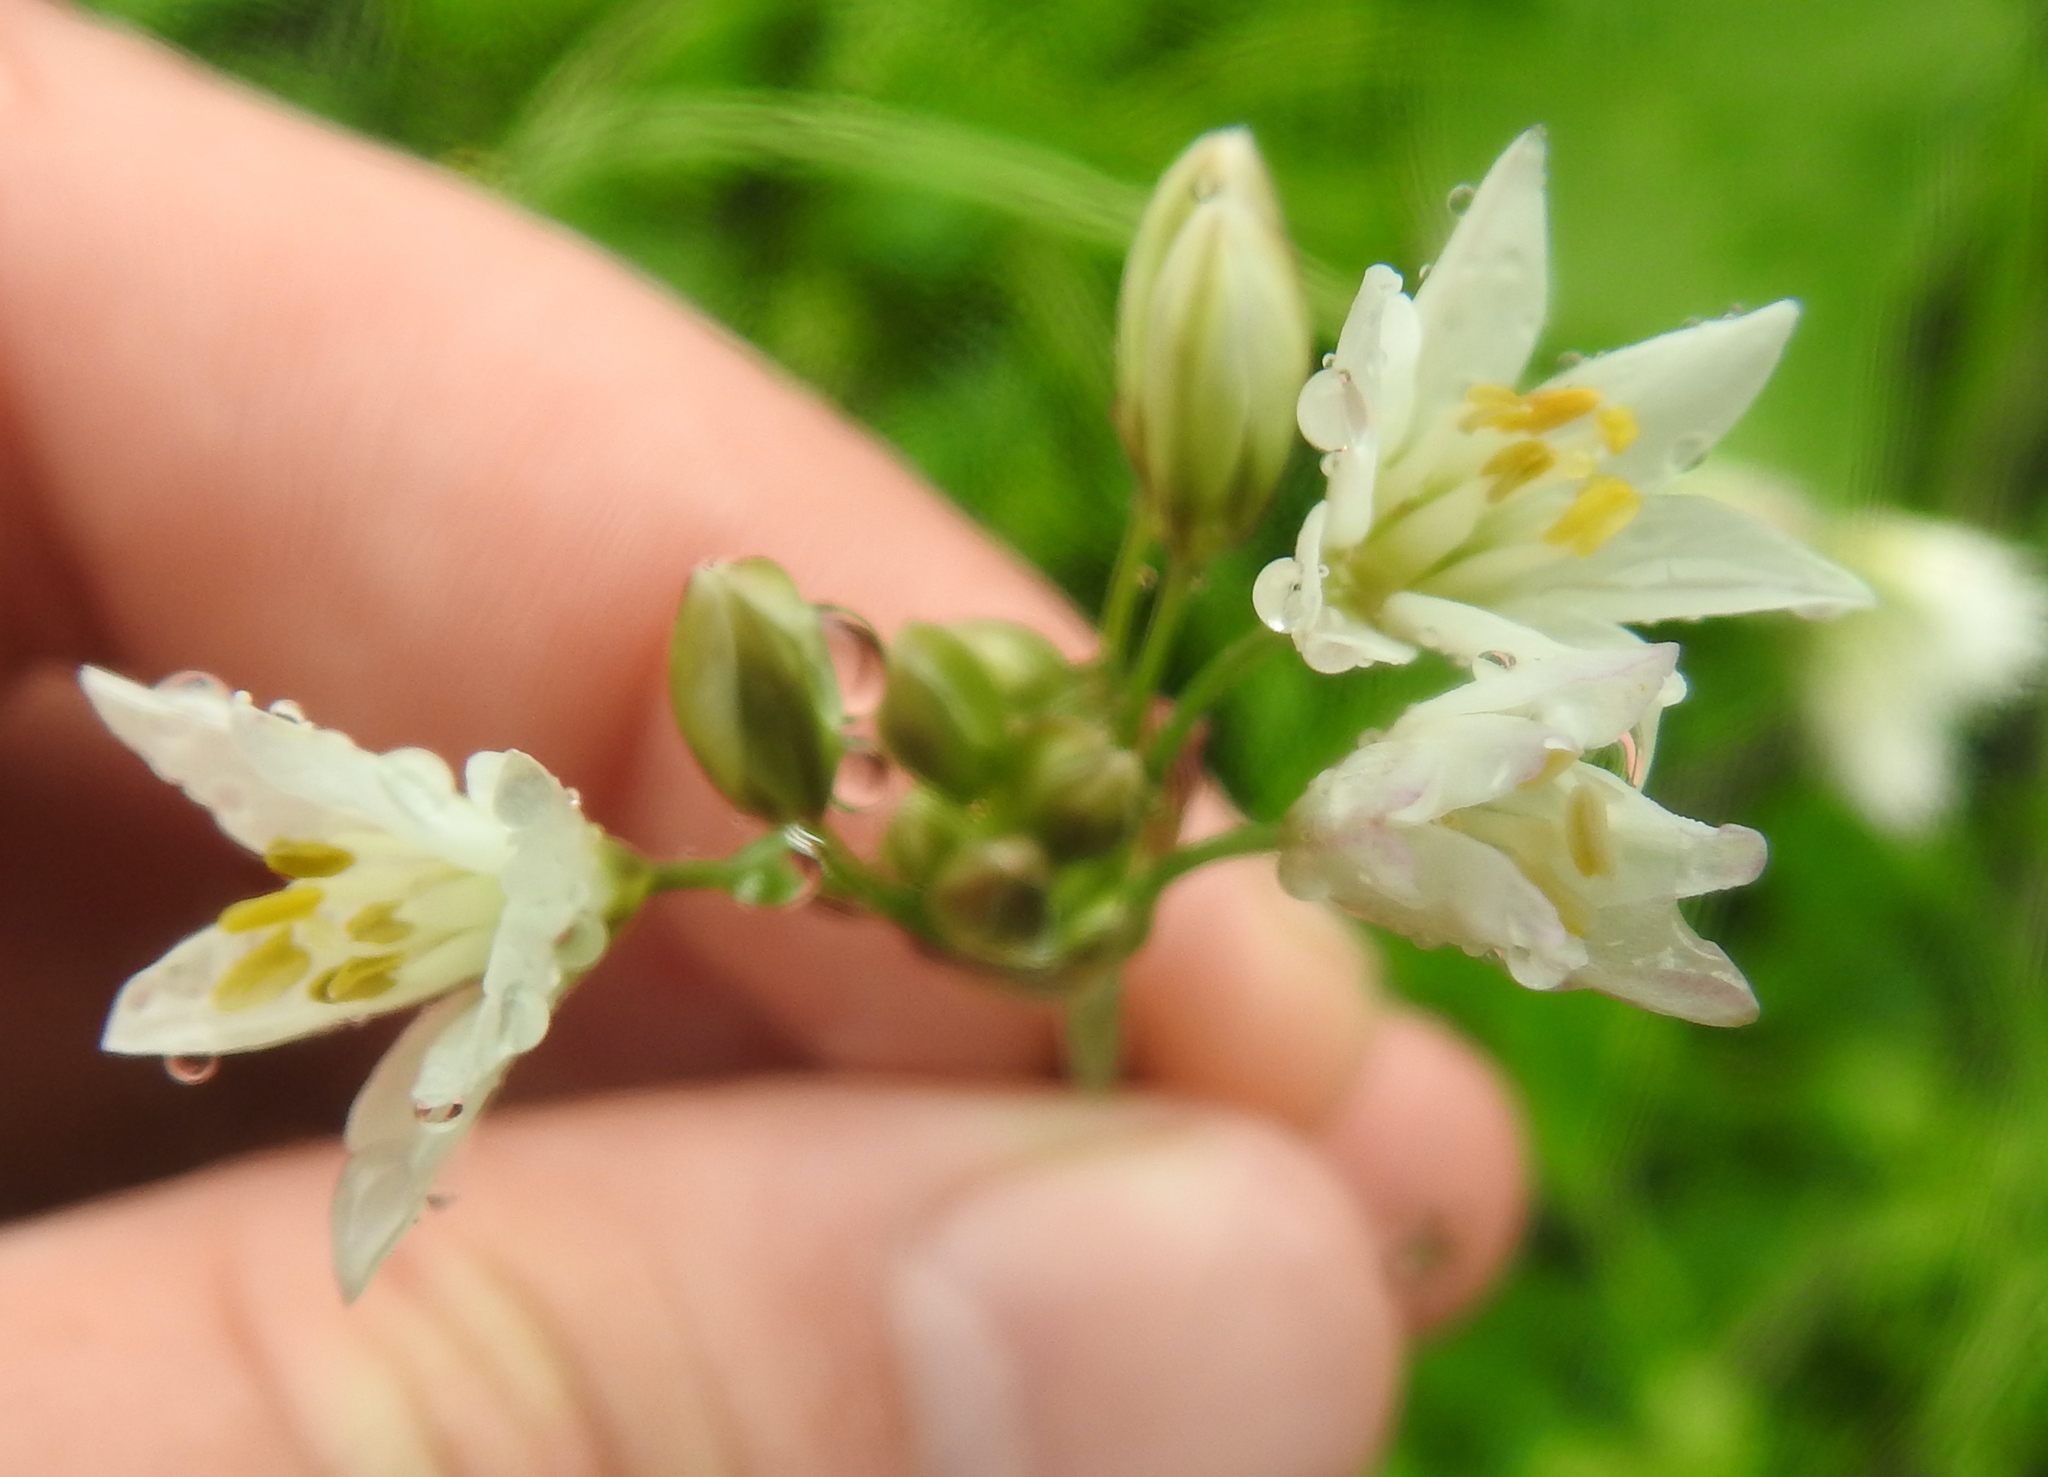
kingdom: Plantae
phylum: Tracheophyta
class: Liliopsida
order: Asparagales
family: Amaryllidaceae
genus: Nothoscordum
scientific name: Nothoscordum gracile
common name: Slender false garlic
